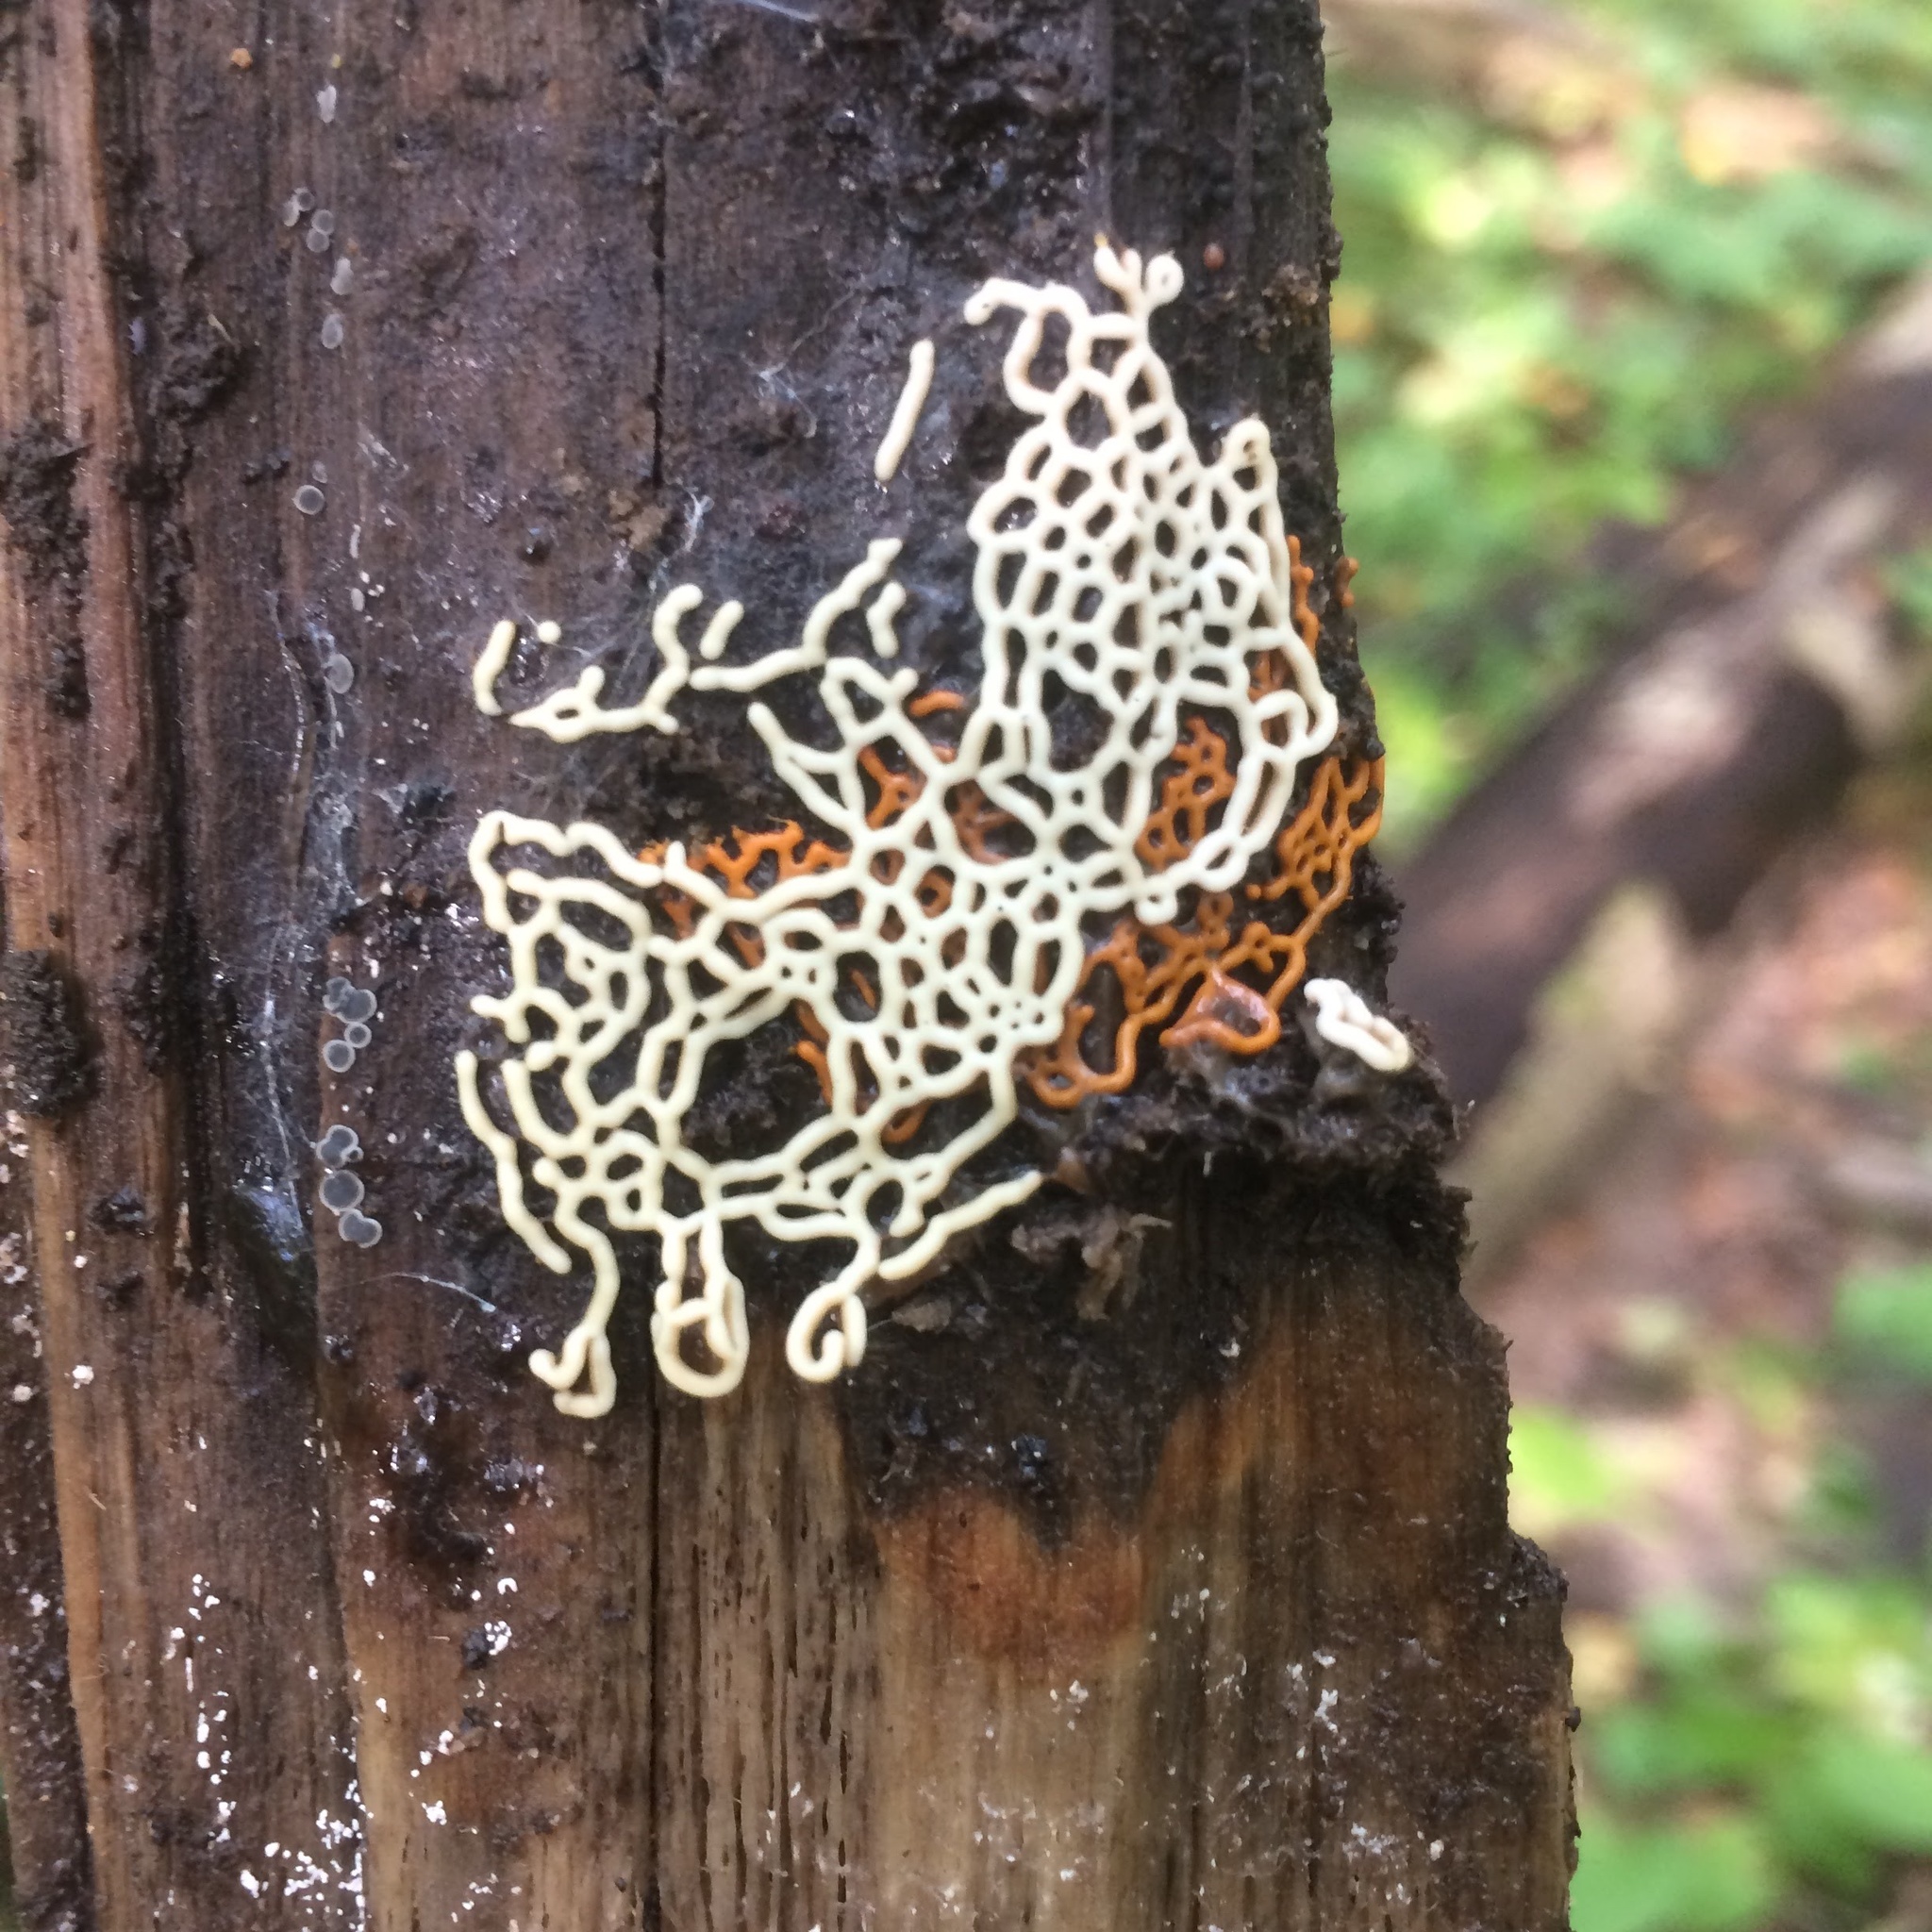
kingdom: Protozoa
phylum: Mycetozoa
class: Myxomycetes
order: Trichiales
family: Arcyriaceae
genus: Hemitrichia
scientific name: Hemitrichia serpula
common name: Pretzel slime mold
